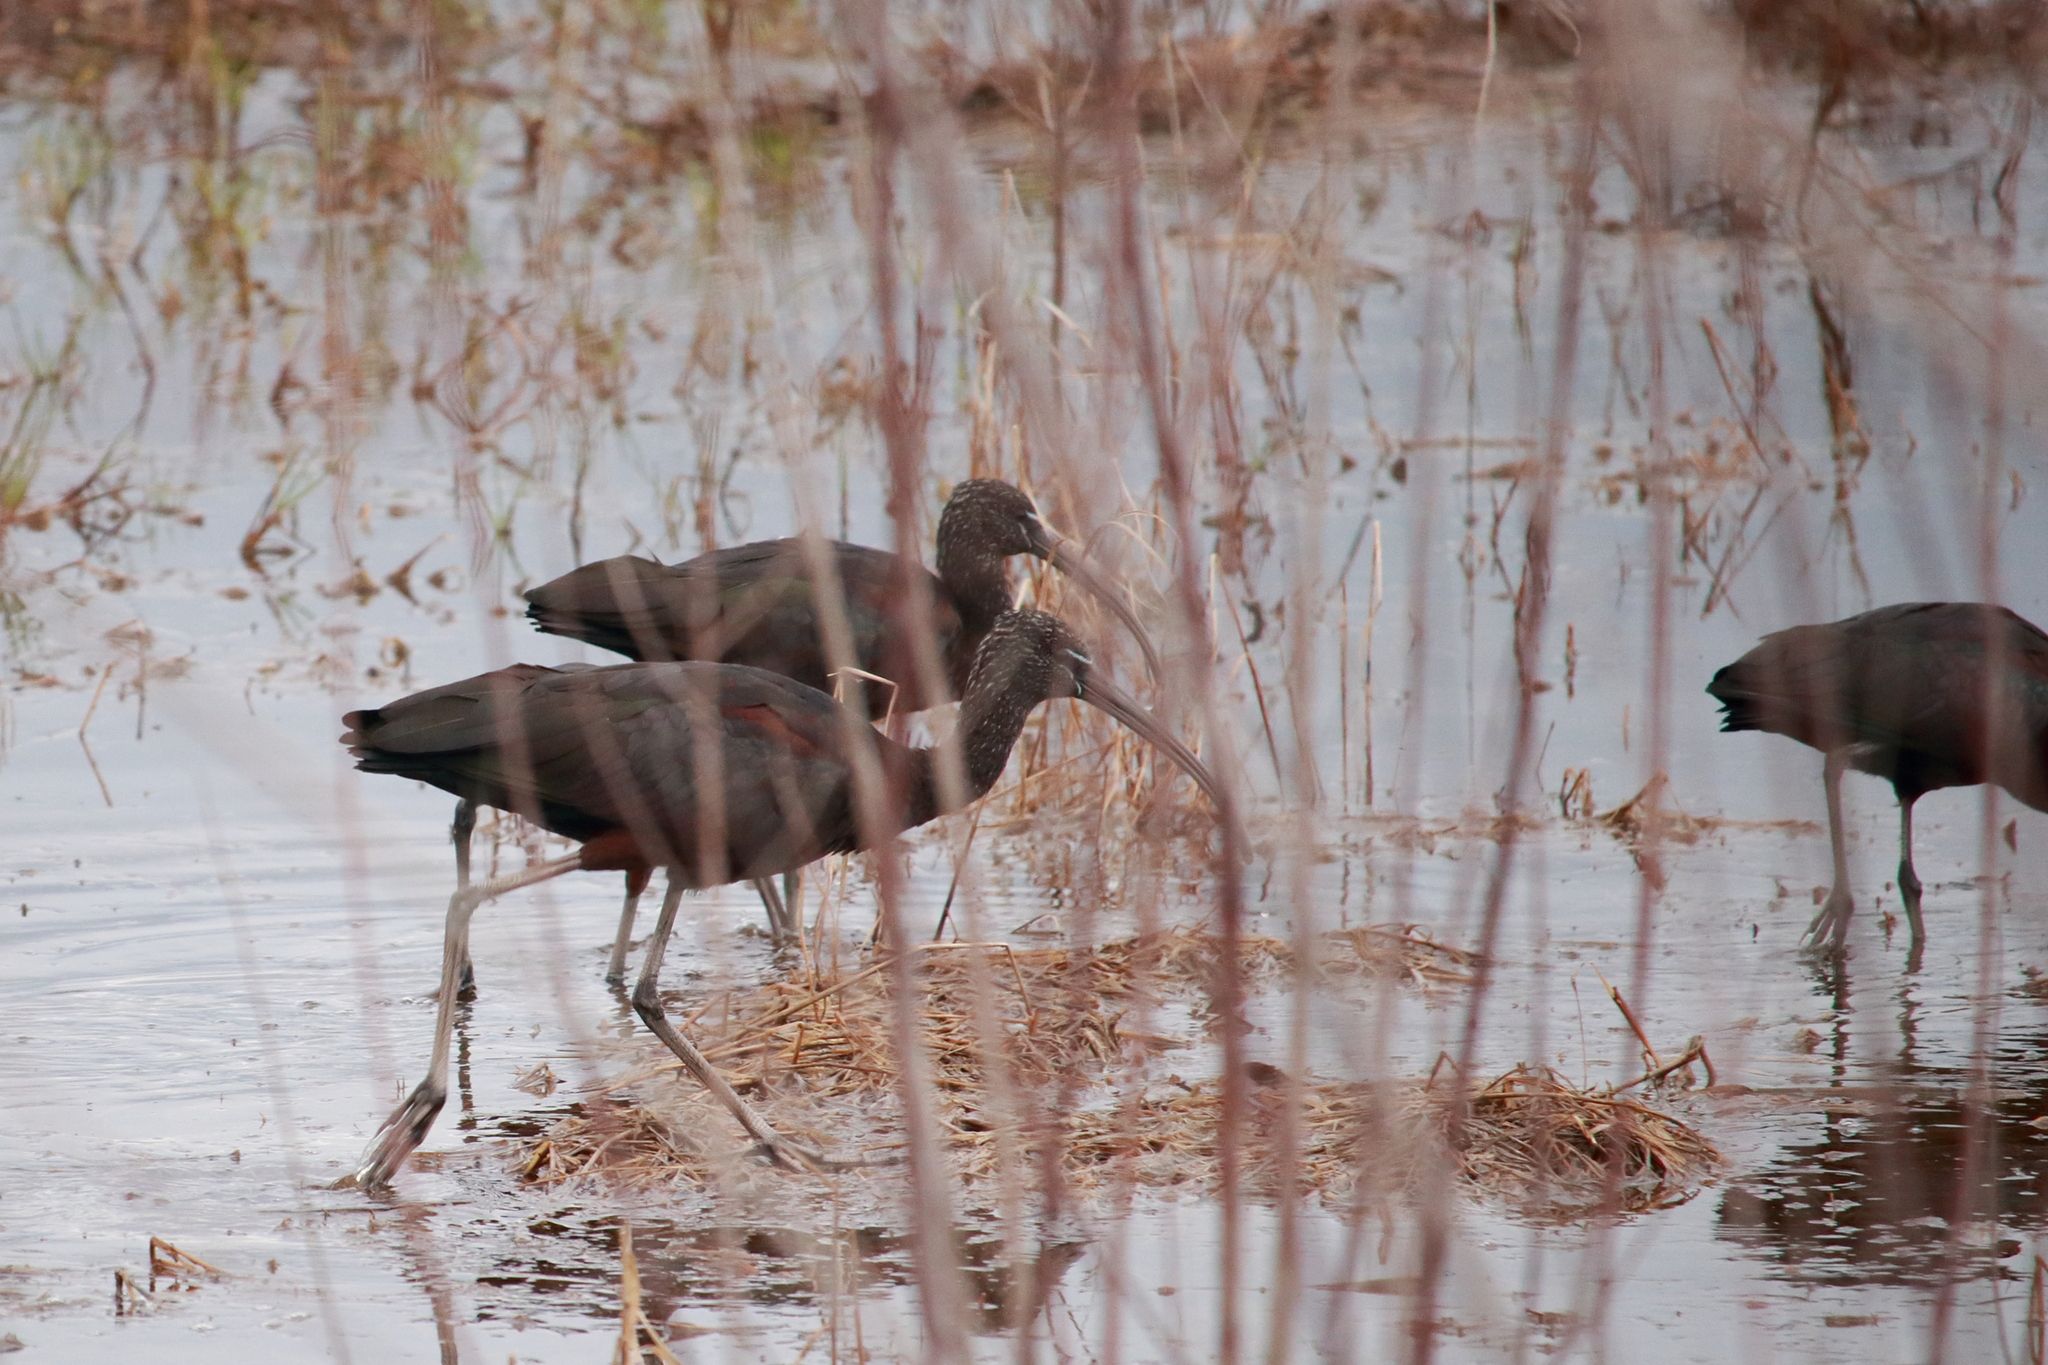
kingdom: Animalia
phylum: Chordata
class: Aves
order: Pelecaniformes
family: Threskiornithidae
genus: Plegadis
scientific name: Plegadis falcinellus
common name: Glossy ibis
